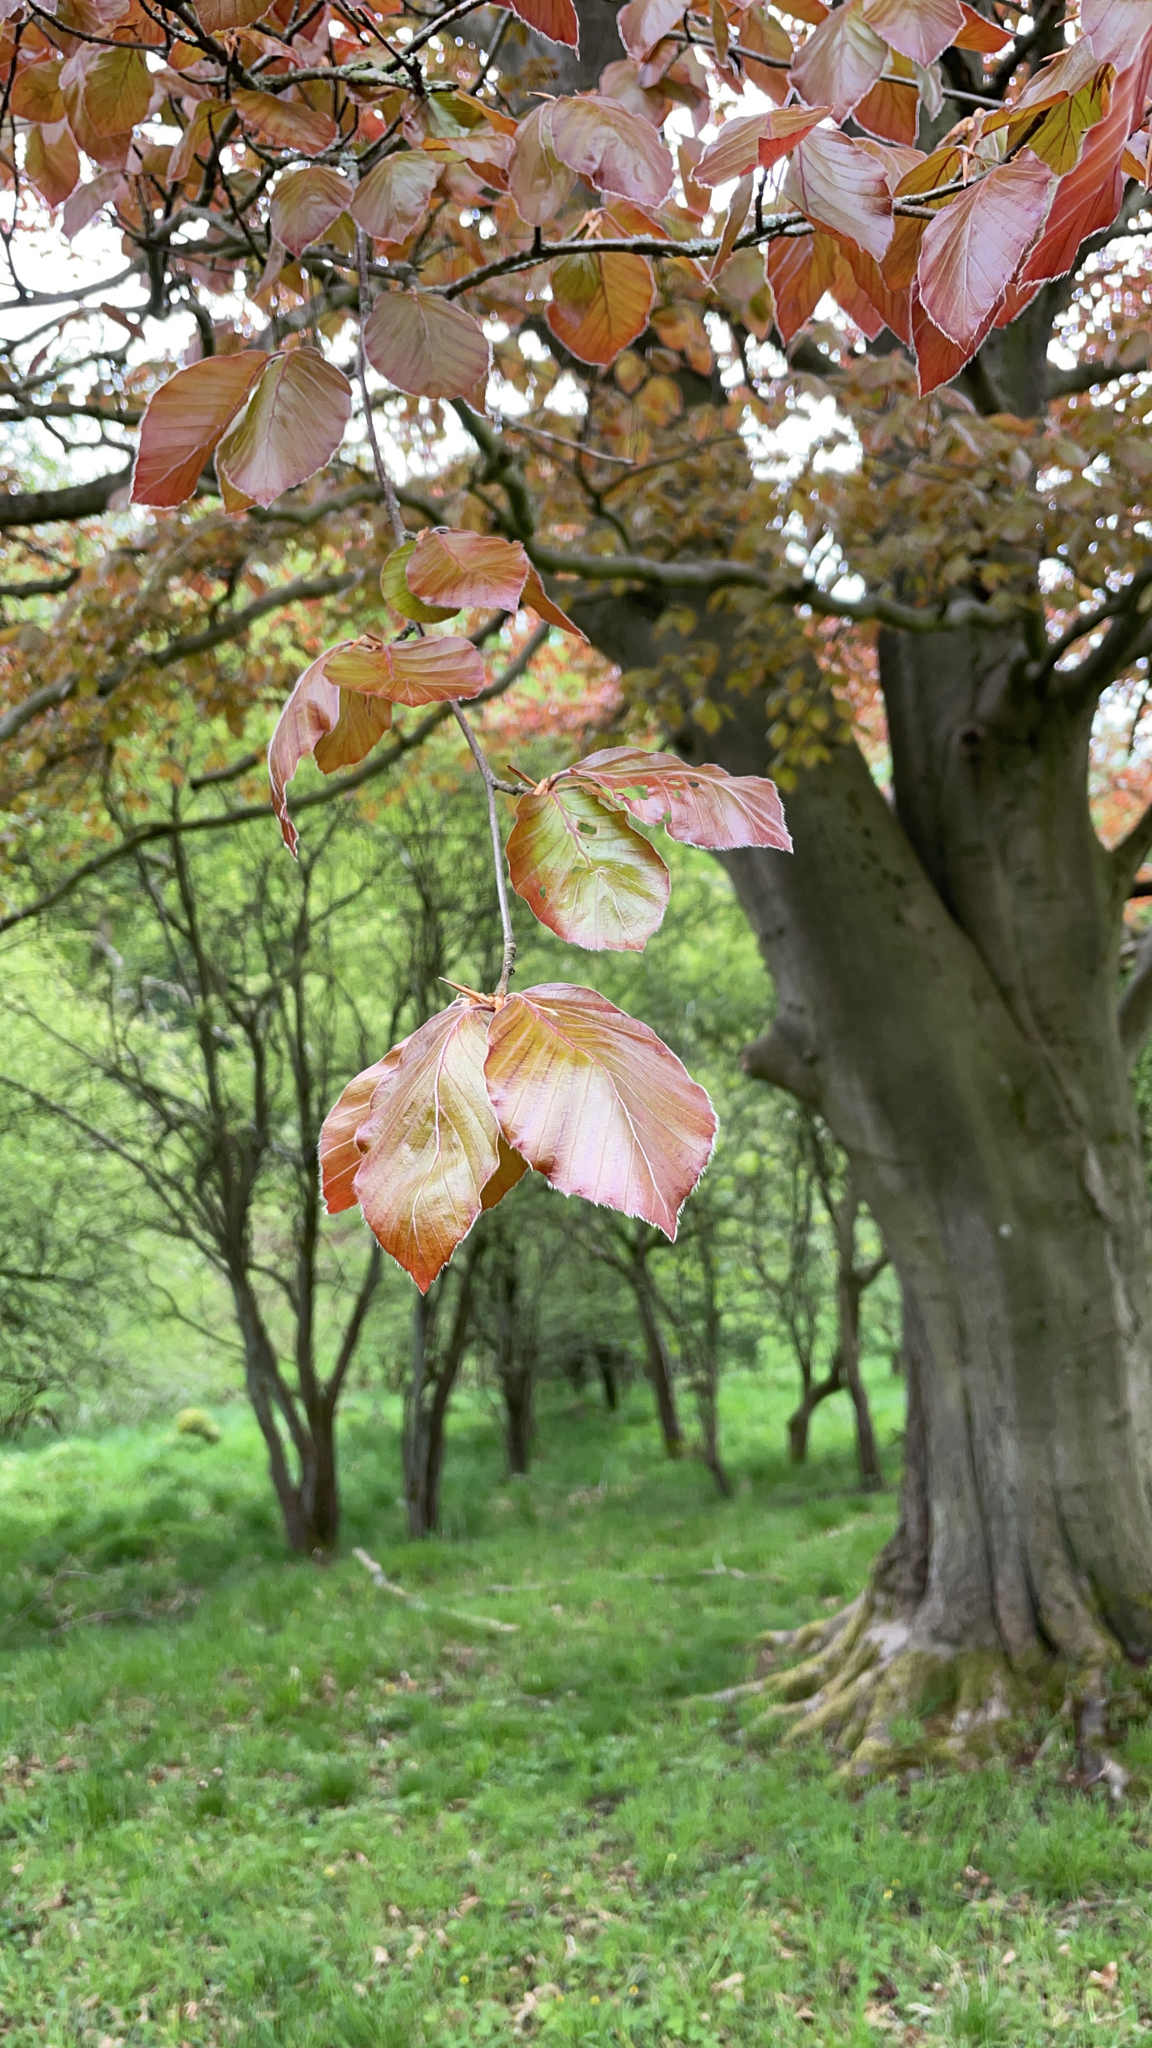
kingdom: Plantae
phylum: Tracheophyta
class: Magnoliopsida
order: Fagales
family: Fagaceae
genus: Fagus
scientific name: Fagus sylvatica
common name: Beech
